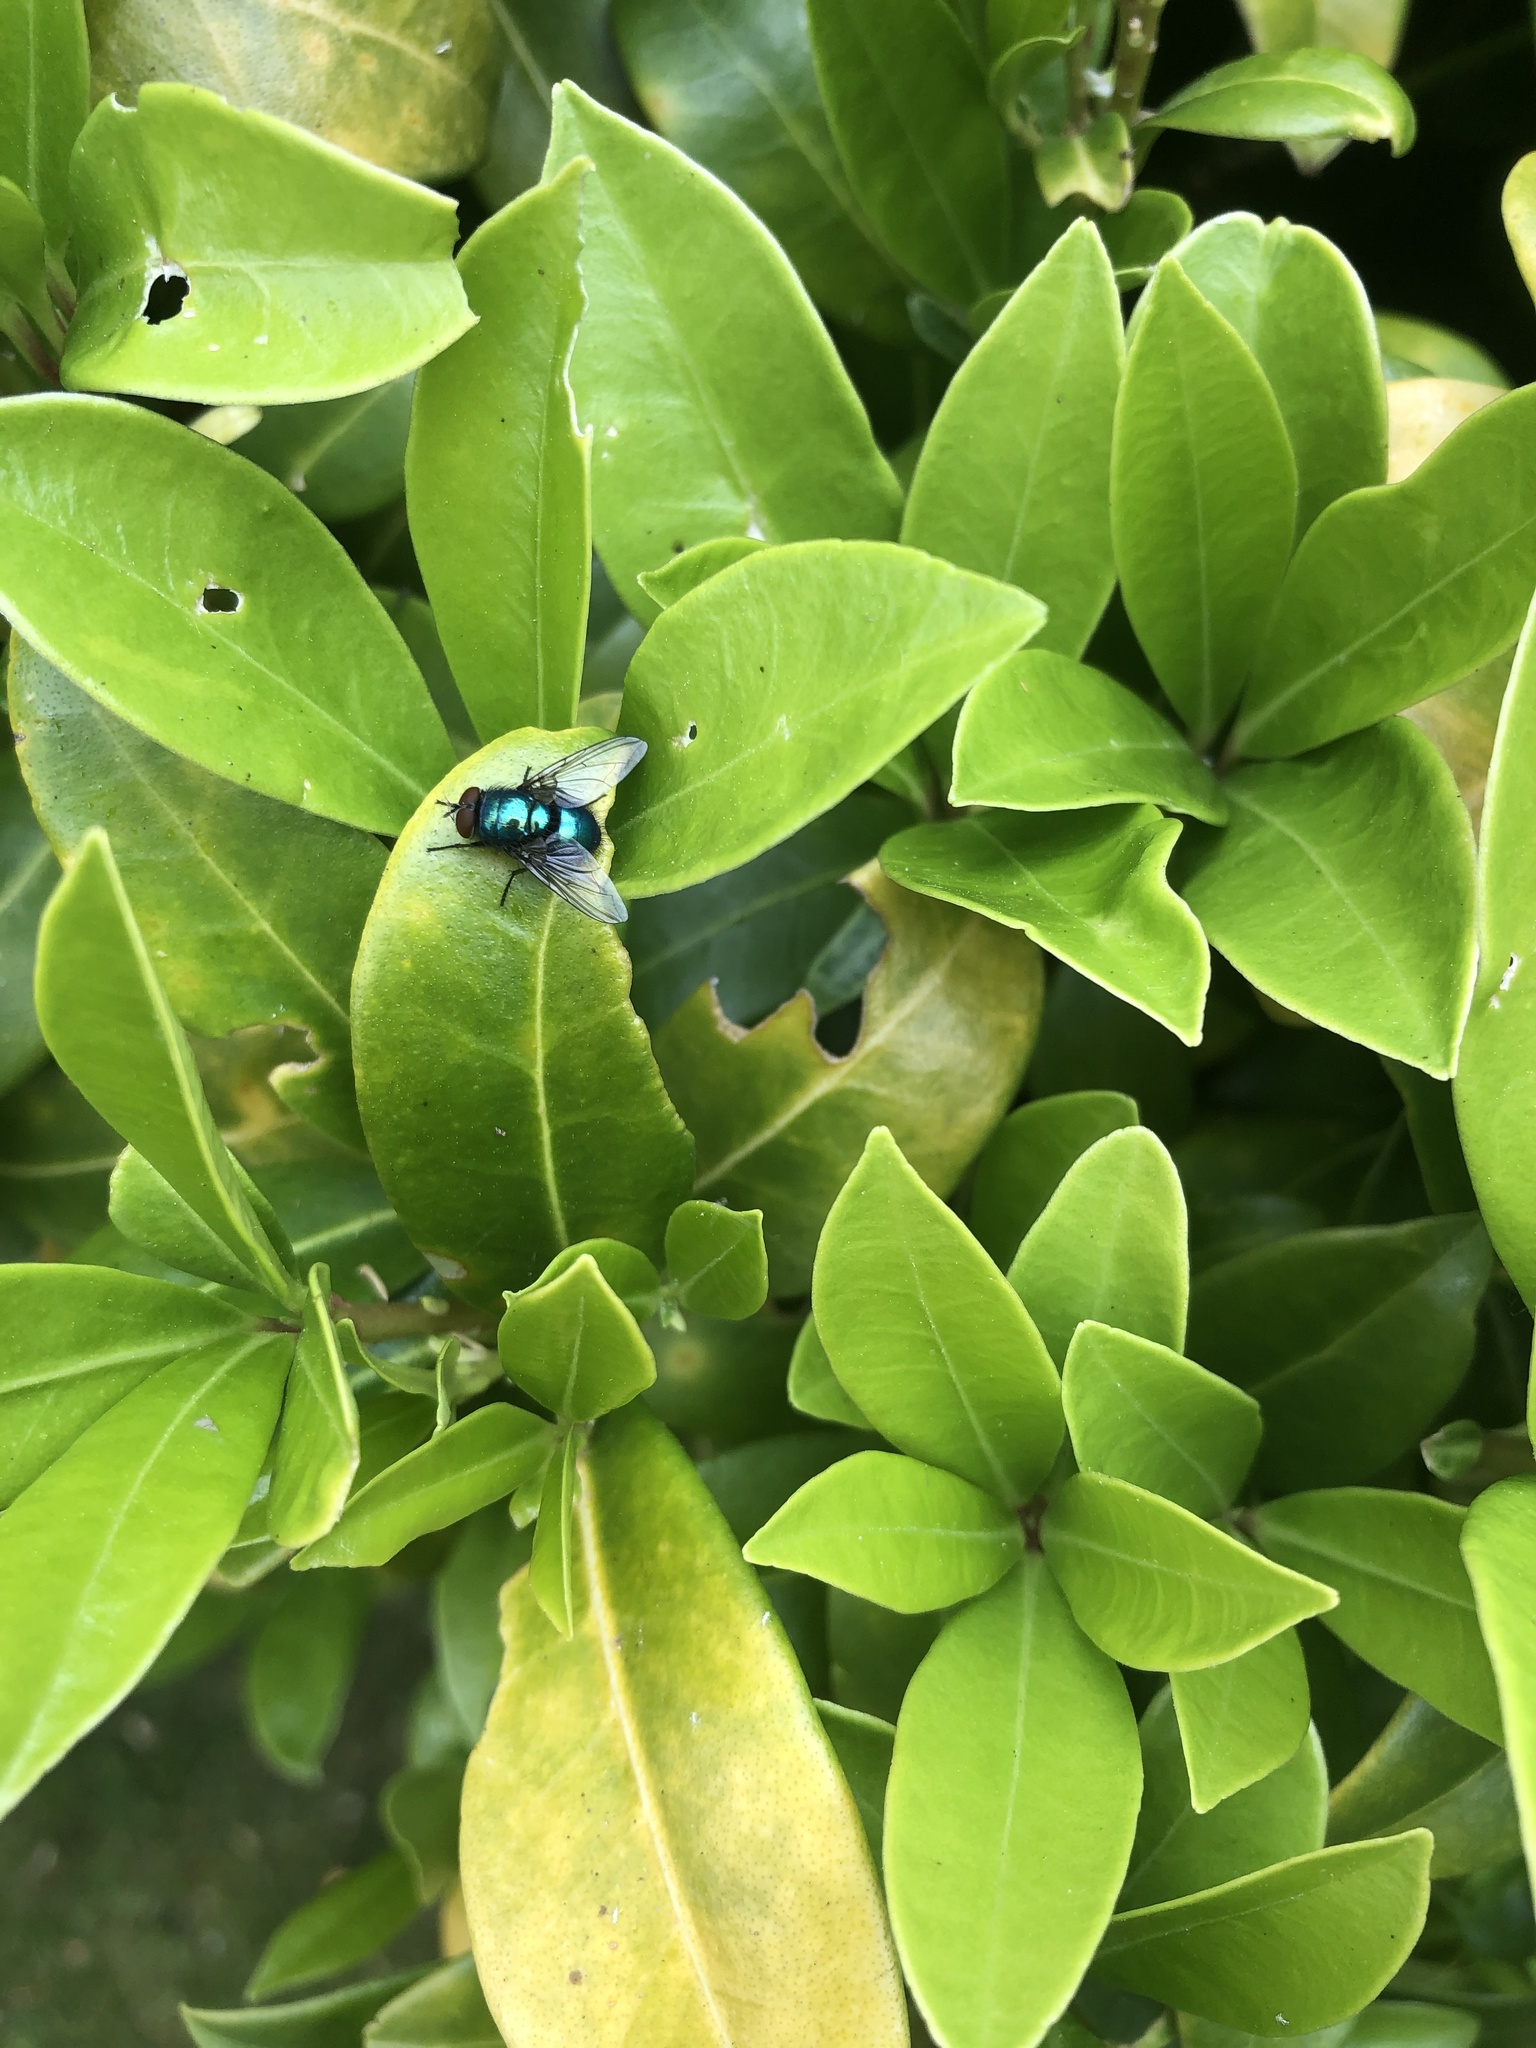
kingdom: Animalia
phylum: Arthropoda
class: Insecta
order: Diptera
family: Calliphoridae
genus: Lucilia
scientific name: Lucilia sericata
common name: Blow fly
